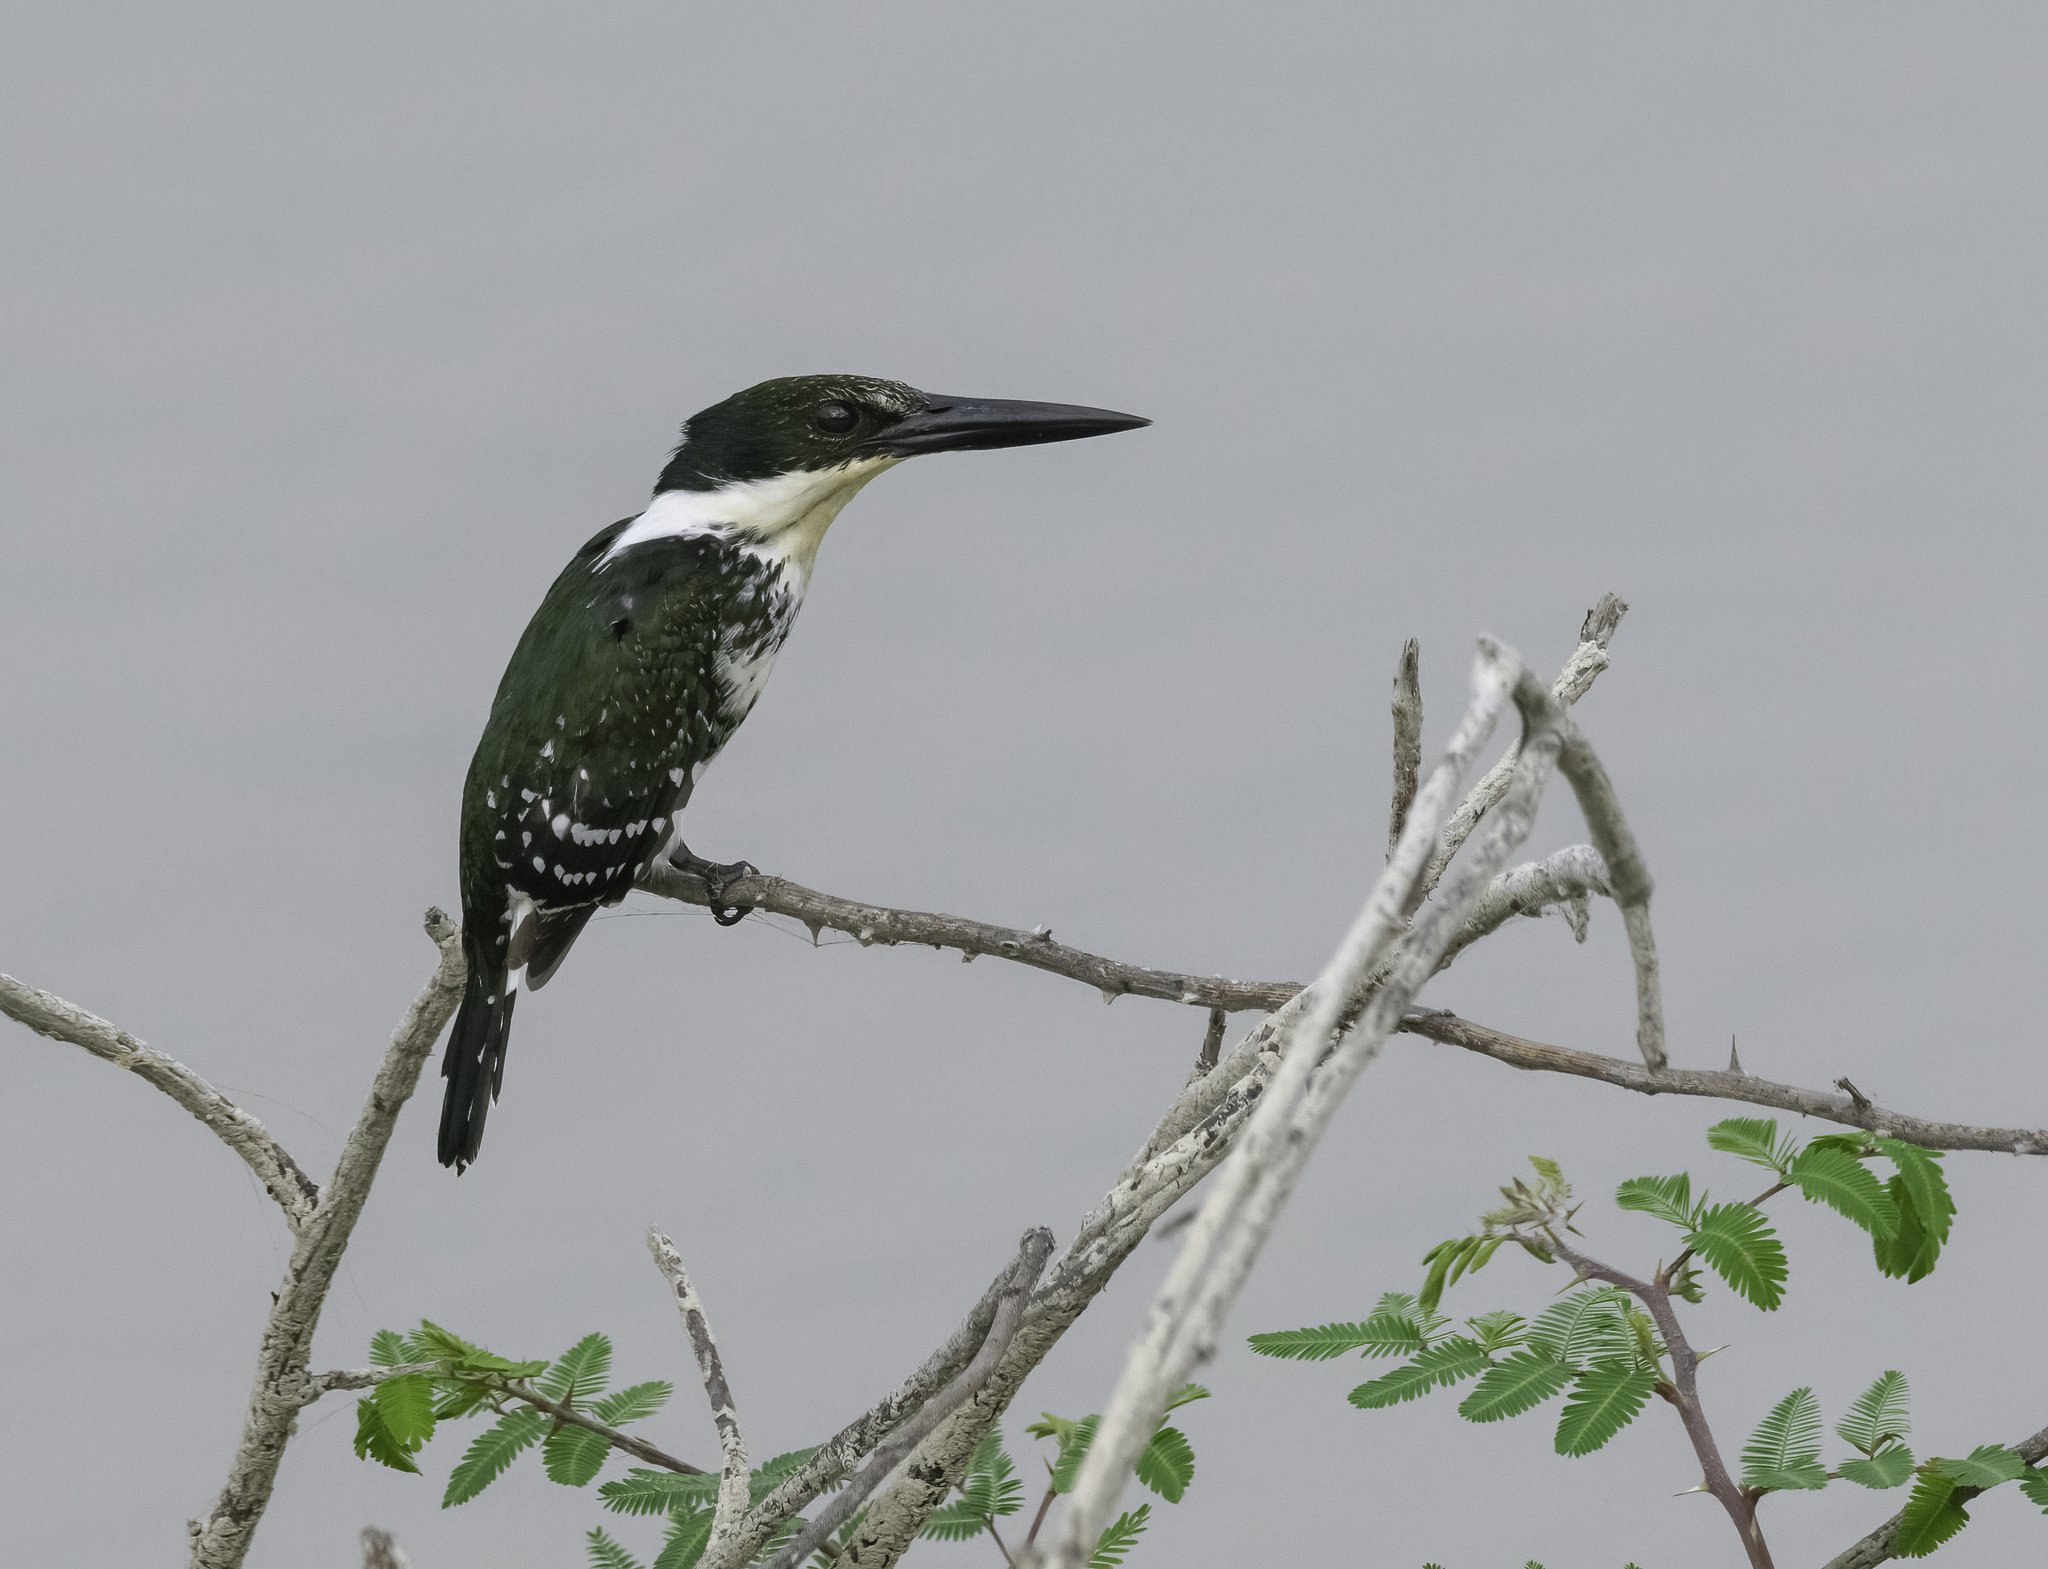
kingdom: Animalia
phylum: Chordata
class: Aves
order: Coraciiformes
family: Alcedinidae
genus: Chloroceryle
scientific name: Chloroceryle americana
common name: Green kingfisher
